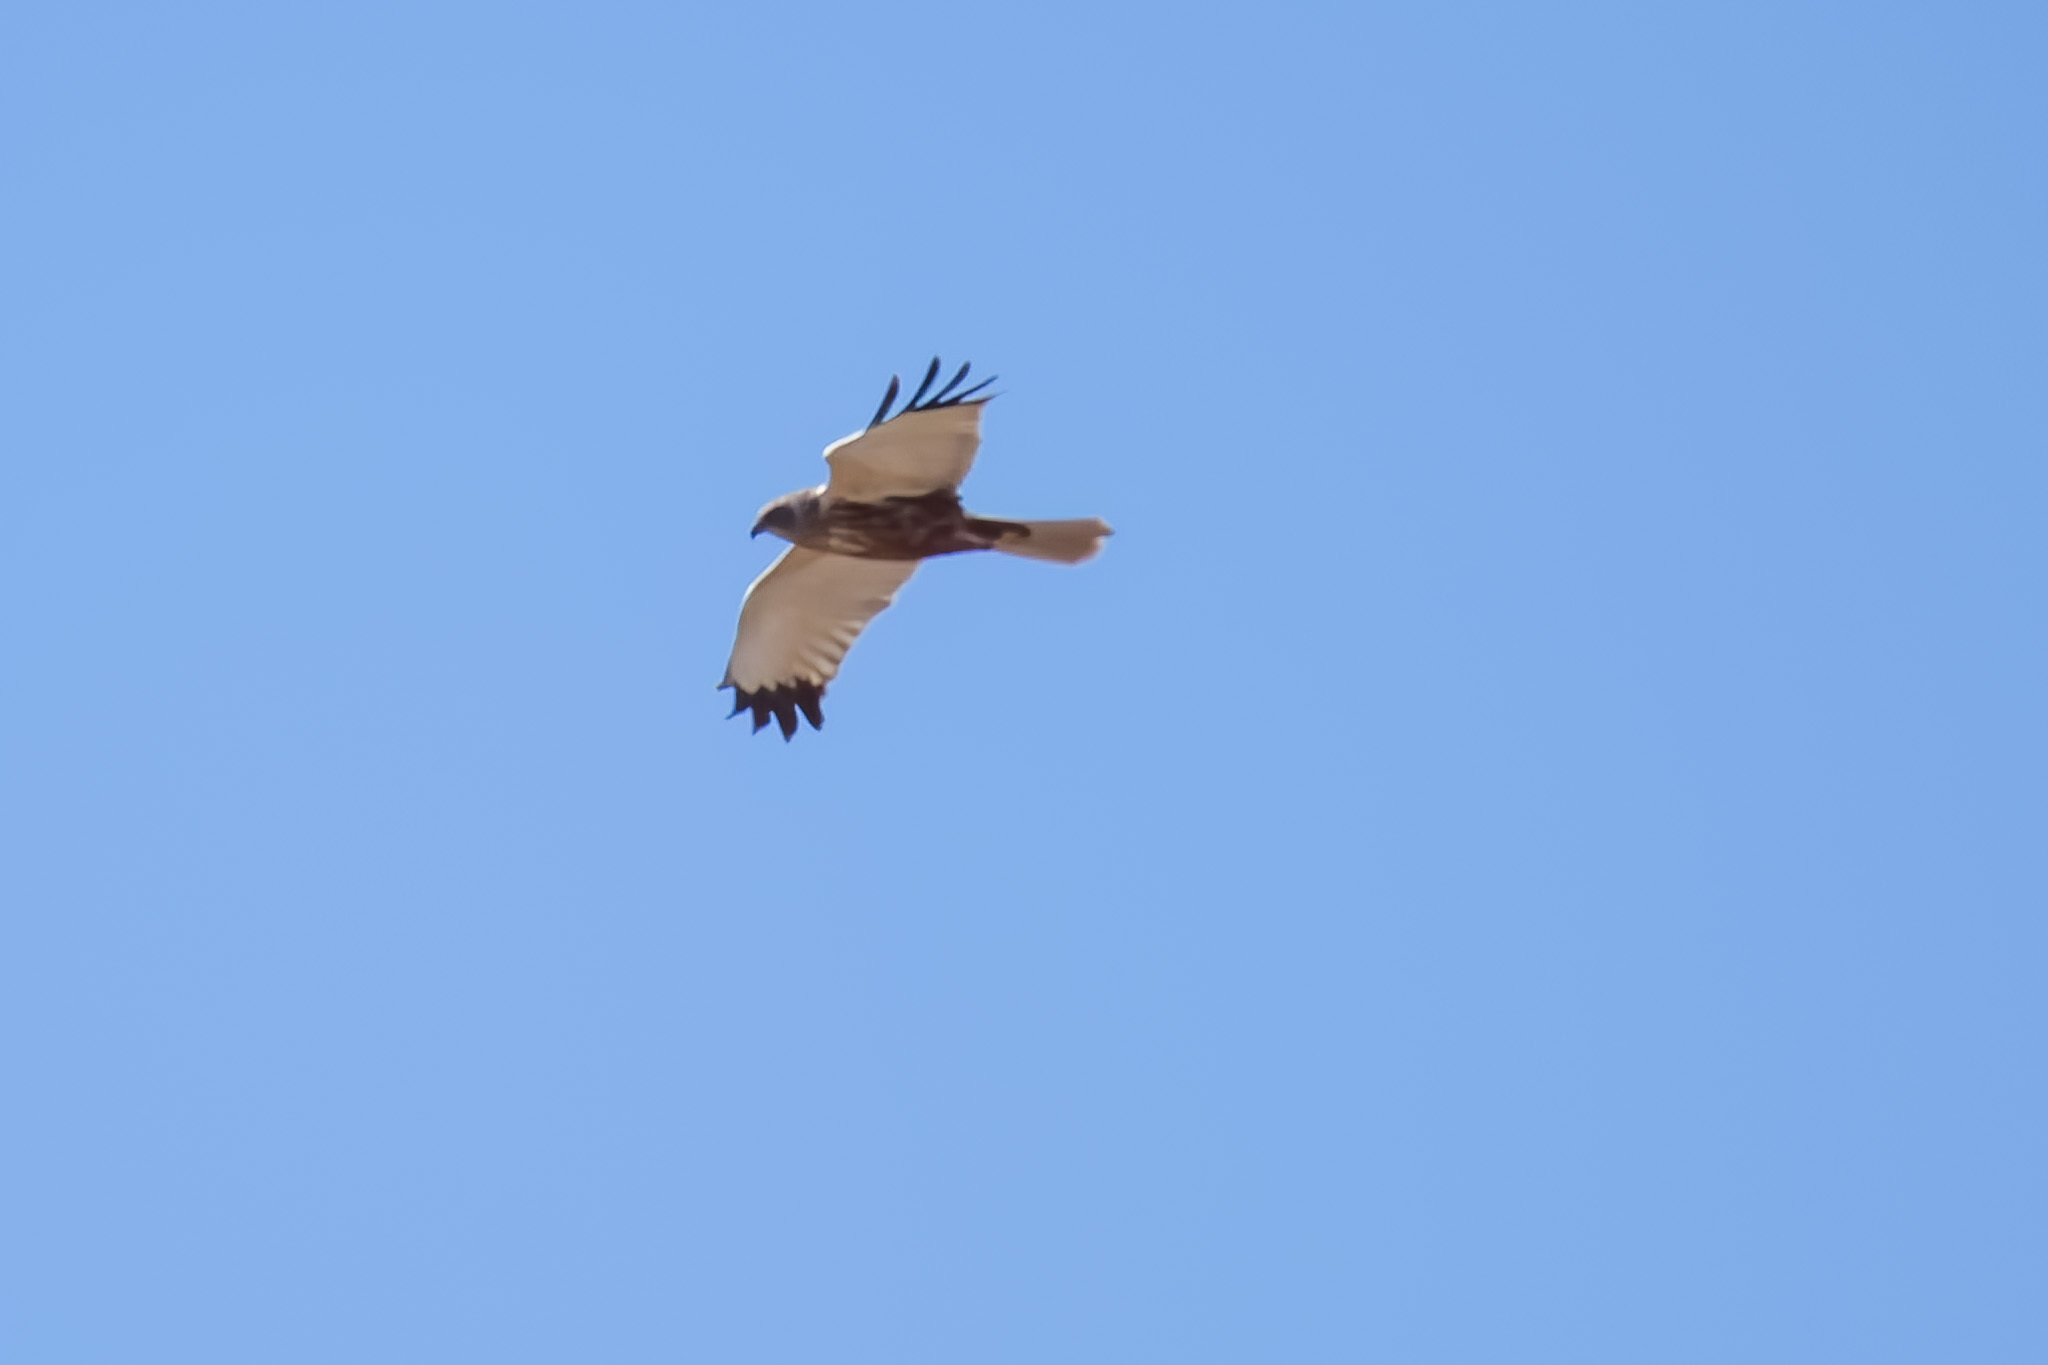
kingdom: Animalia
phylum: Chordata
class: Aves
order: Accipitriformes
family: Accipitridae
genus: Circus
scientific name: Circus aeruginosus
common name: Western marsh harrier
